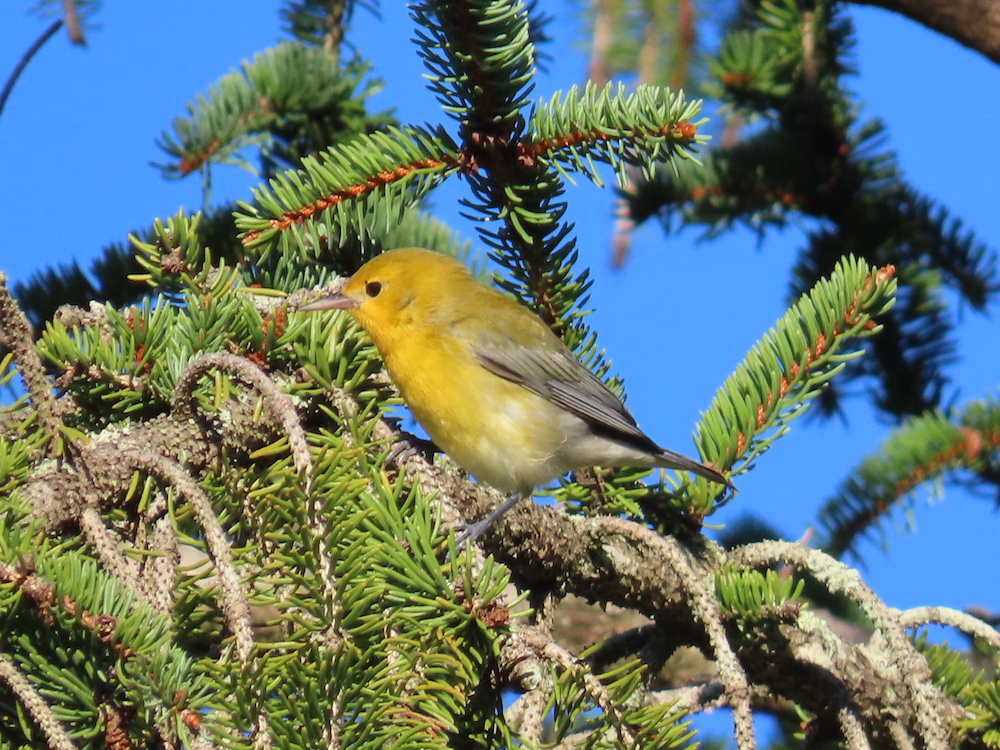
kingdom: Animalia
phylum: Chordata
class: Aves
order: Passeriformes
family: Parulidae
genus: Protonotaria
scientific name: Protonotaria citrea
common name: Prothonotary warbler
